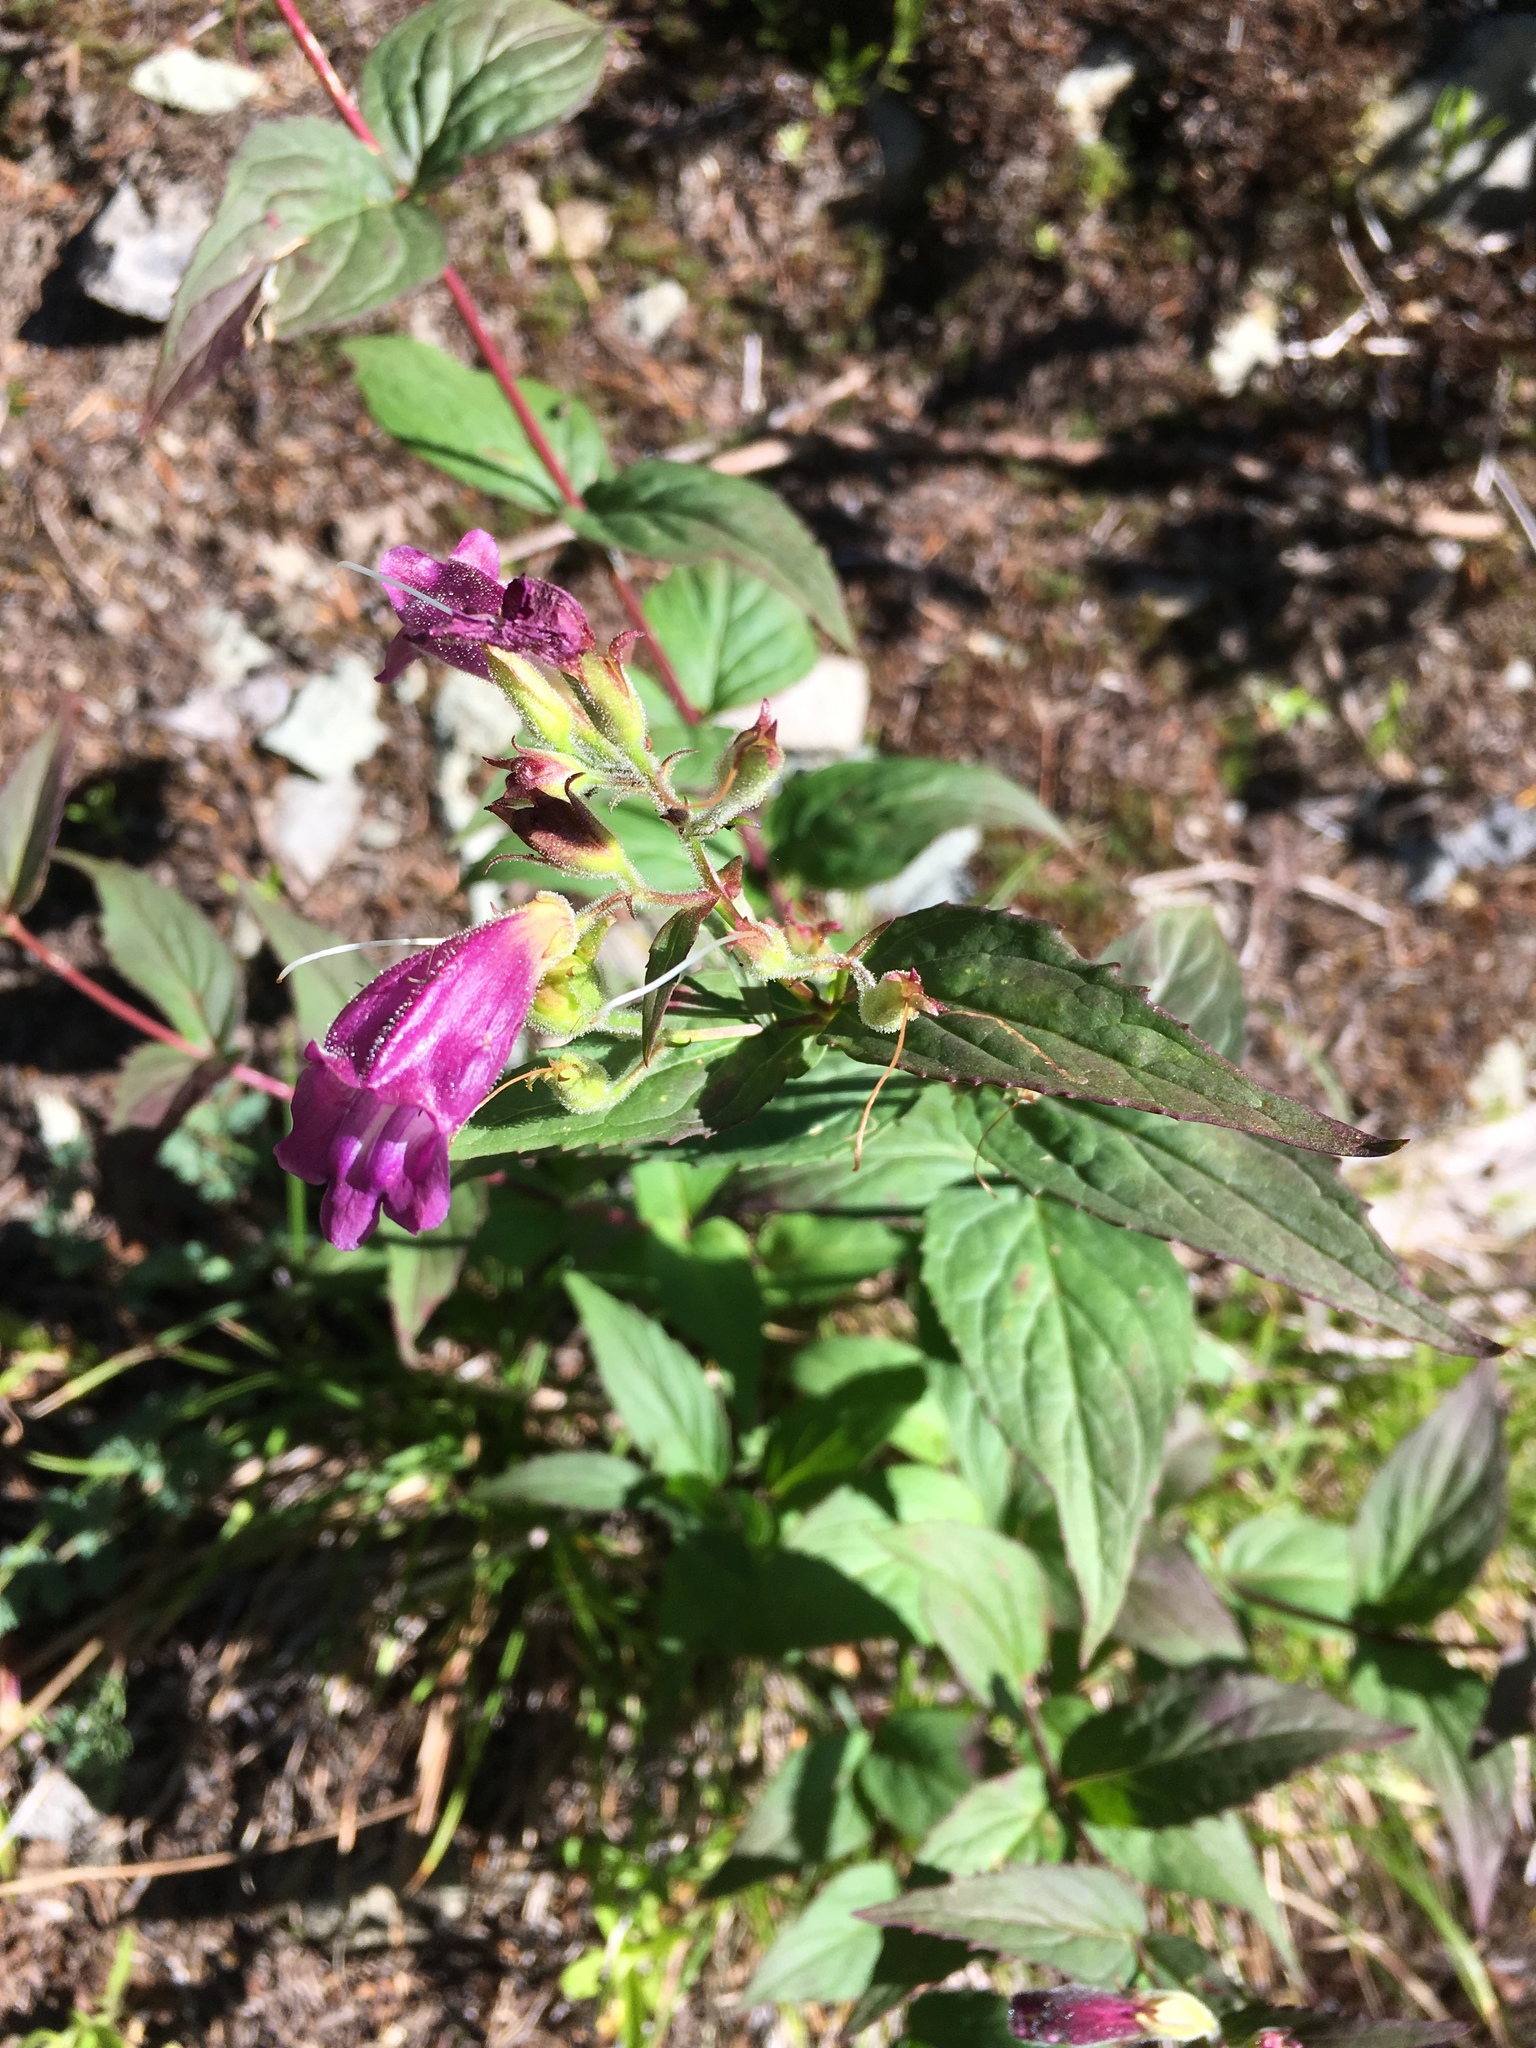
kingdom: Plantae
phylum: Tracheophyta
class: Magnoliopsida
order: Lamiales
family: Plantaginaceae
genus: Nothochelone
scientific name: Nothochelone nemorosa
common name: Woodland beardtongue
